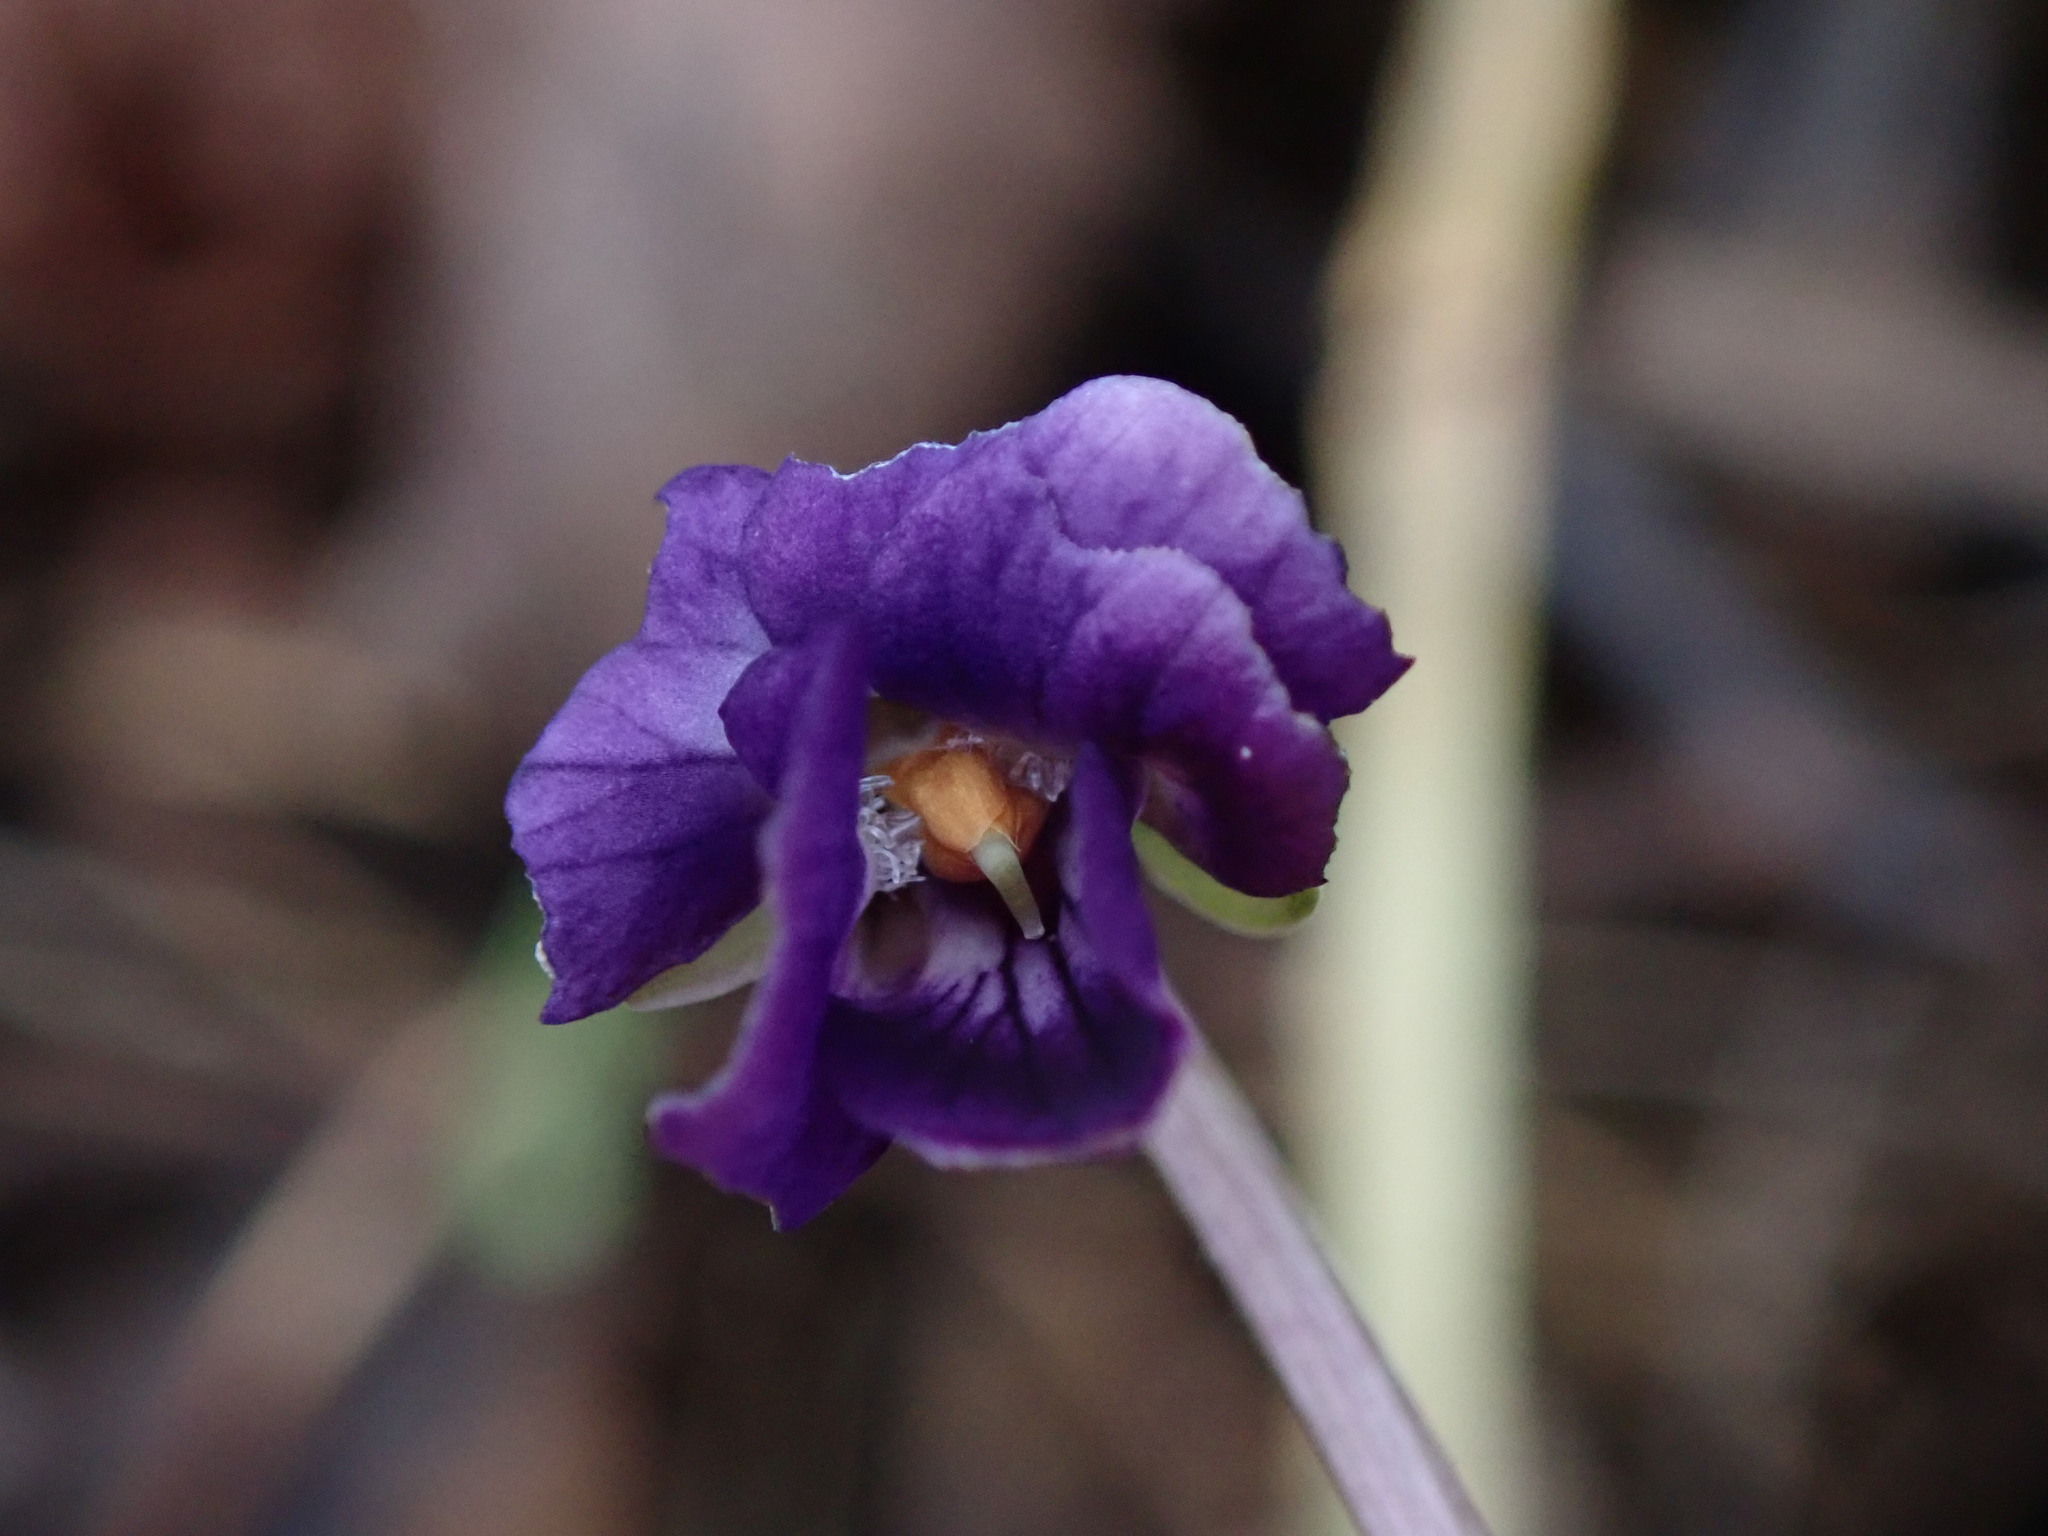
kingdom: Plantae
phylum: Tracheophyta
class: Magnoliopsida
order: Malpighiales
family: Violaceae
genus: Viola
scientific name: Viola odorata
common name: Sweet violet
